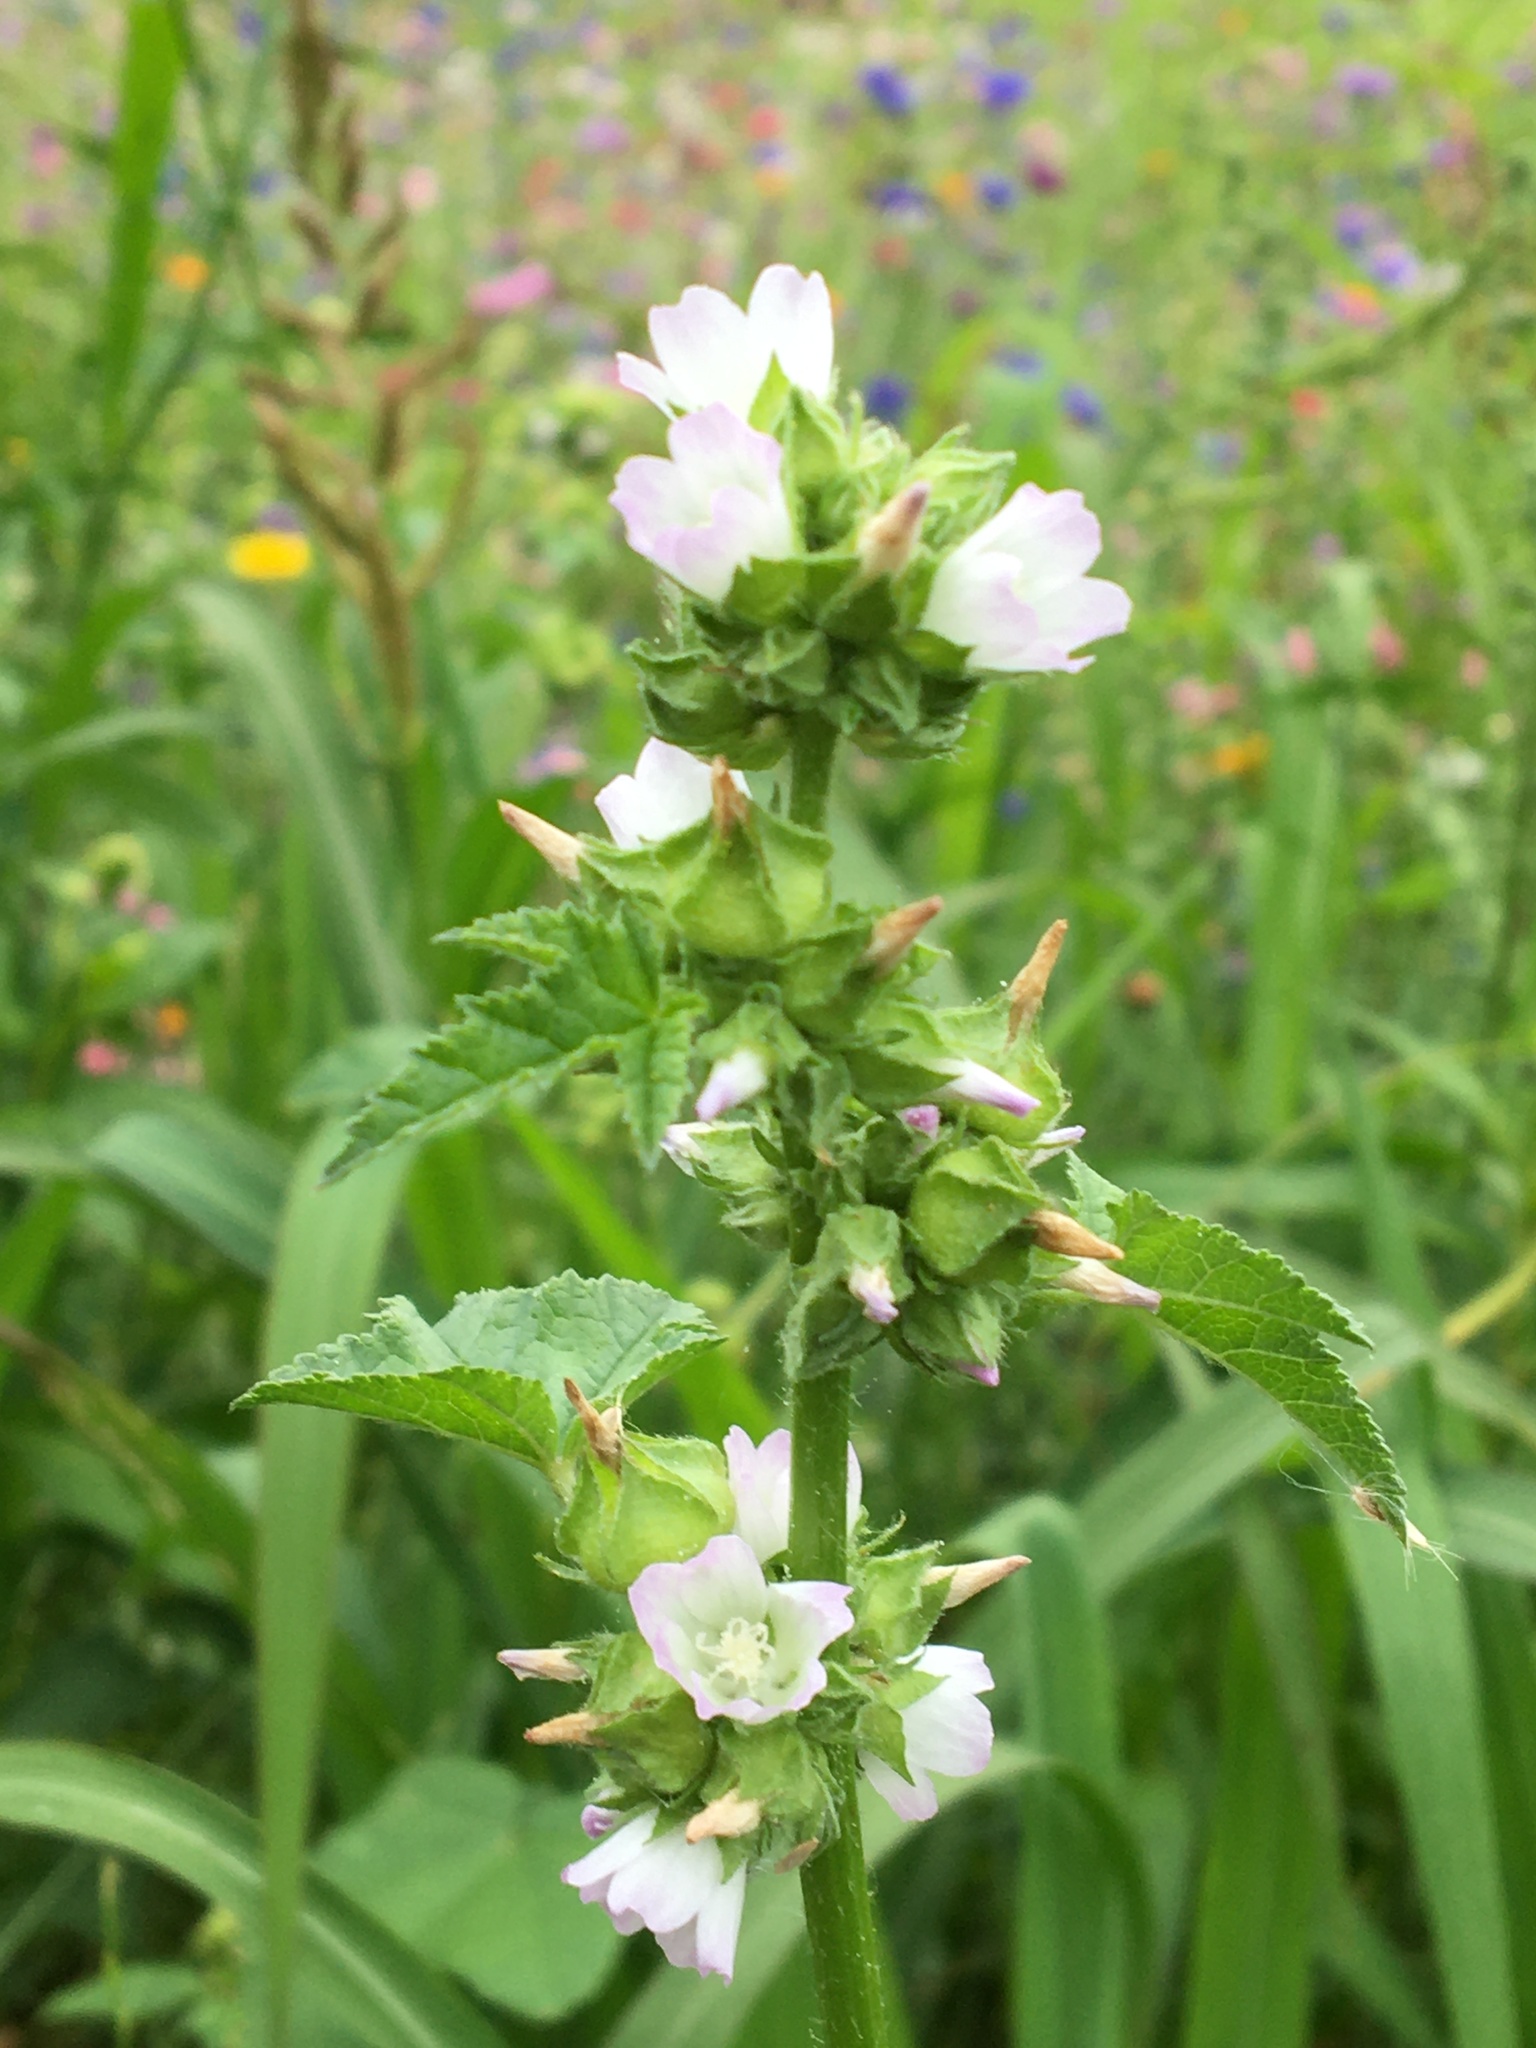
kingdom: Plantae
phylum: Tracheophyta
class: Magnoliopsida
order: Malvales
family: Malvaceae
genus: Malva
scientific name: Malva neglecta
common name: Common mallow
